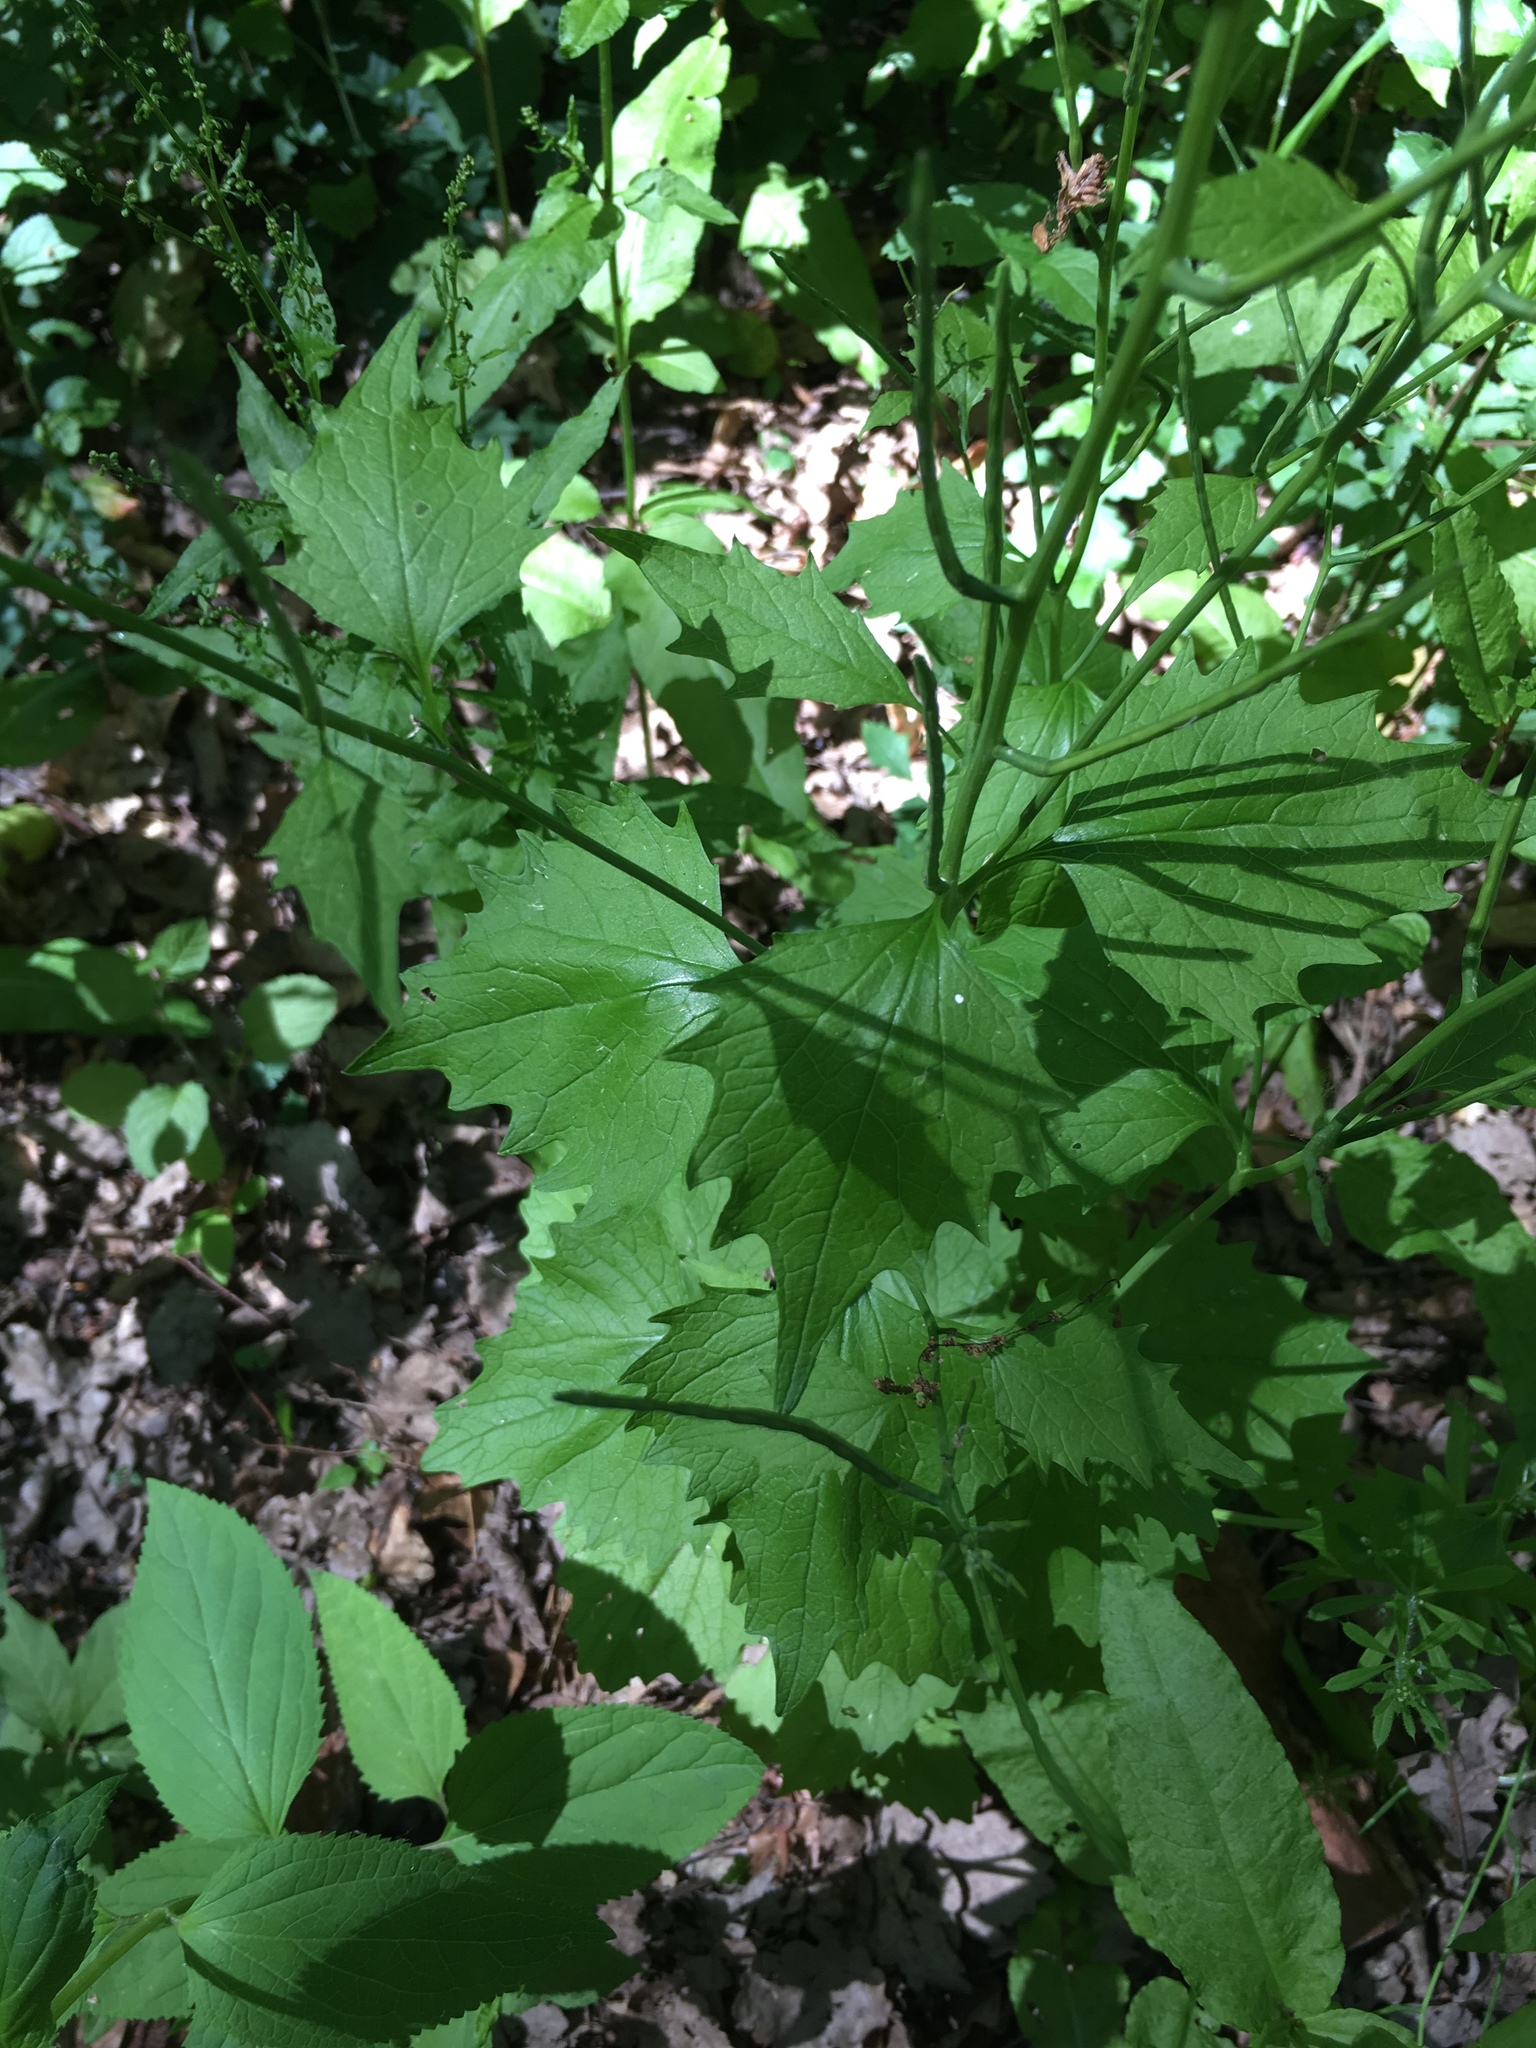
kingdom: Plantae
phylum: Tracheophyta
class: Magnoliopsida
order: Brassicales
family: Brassicaceae
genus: Alliaria
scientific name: Alliaria petiolata
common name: Garlic mustard
